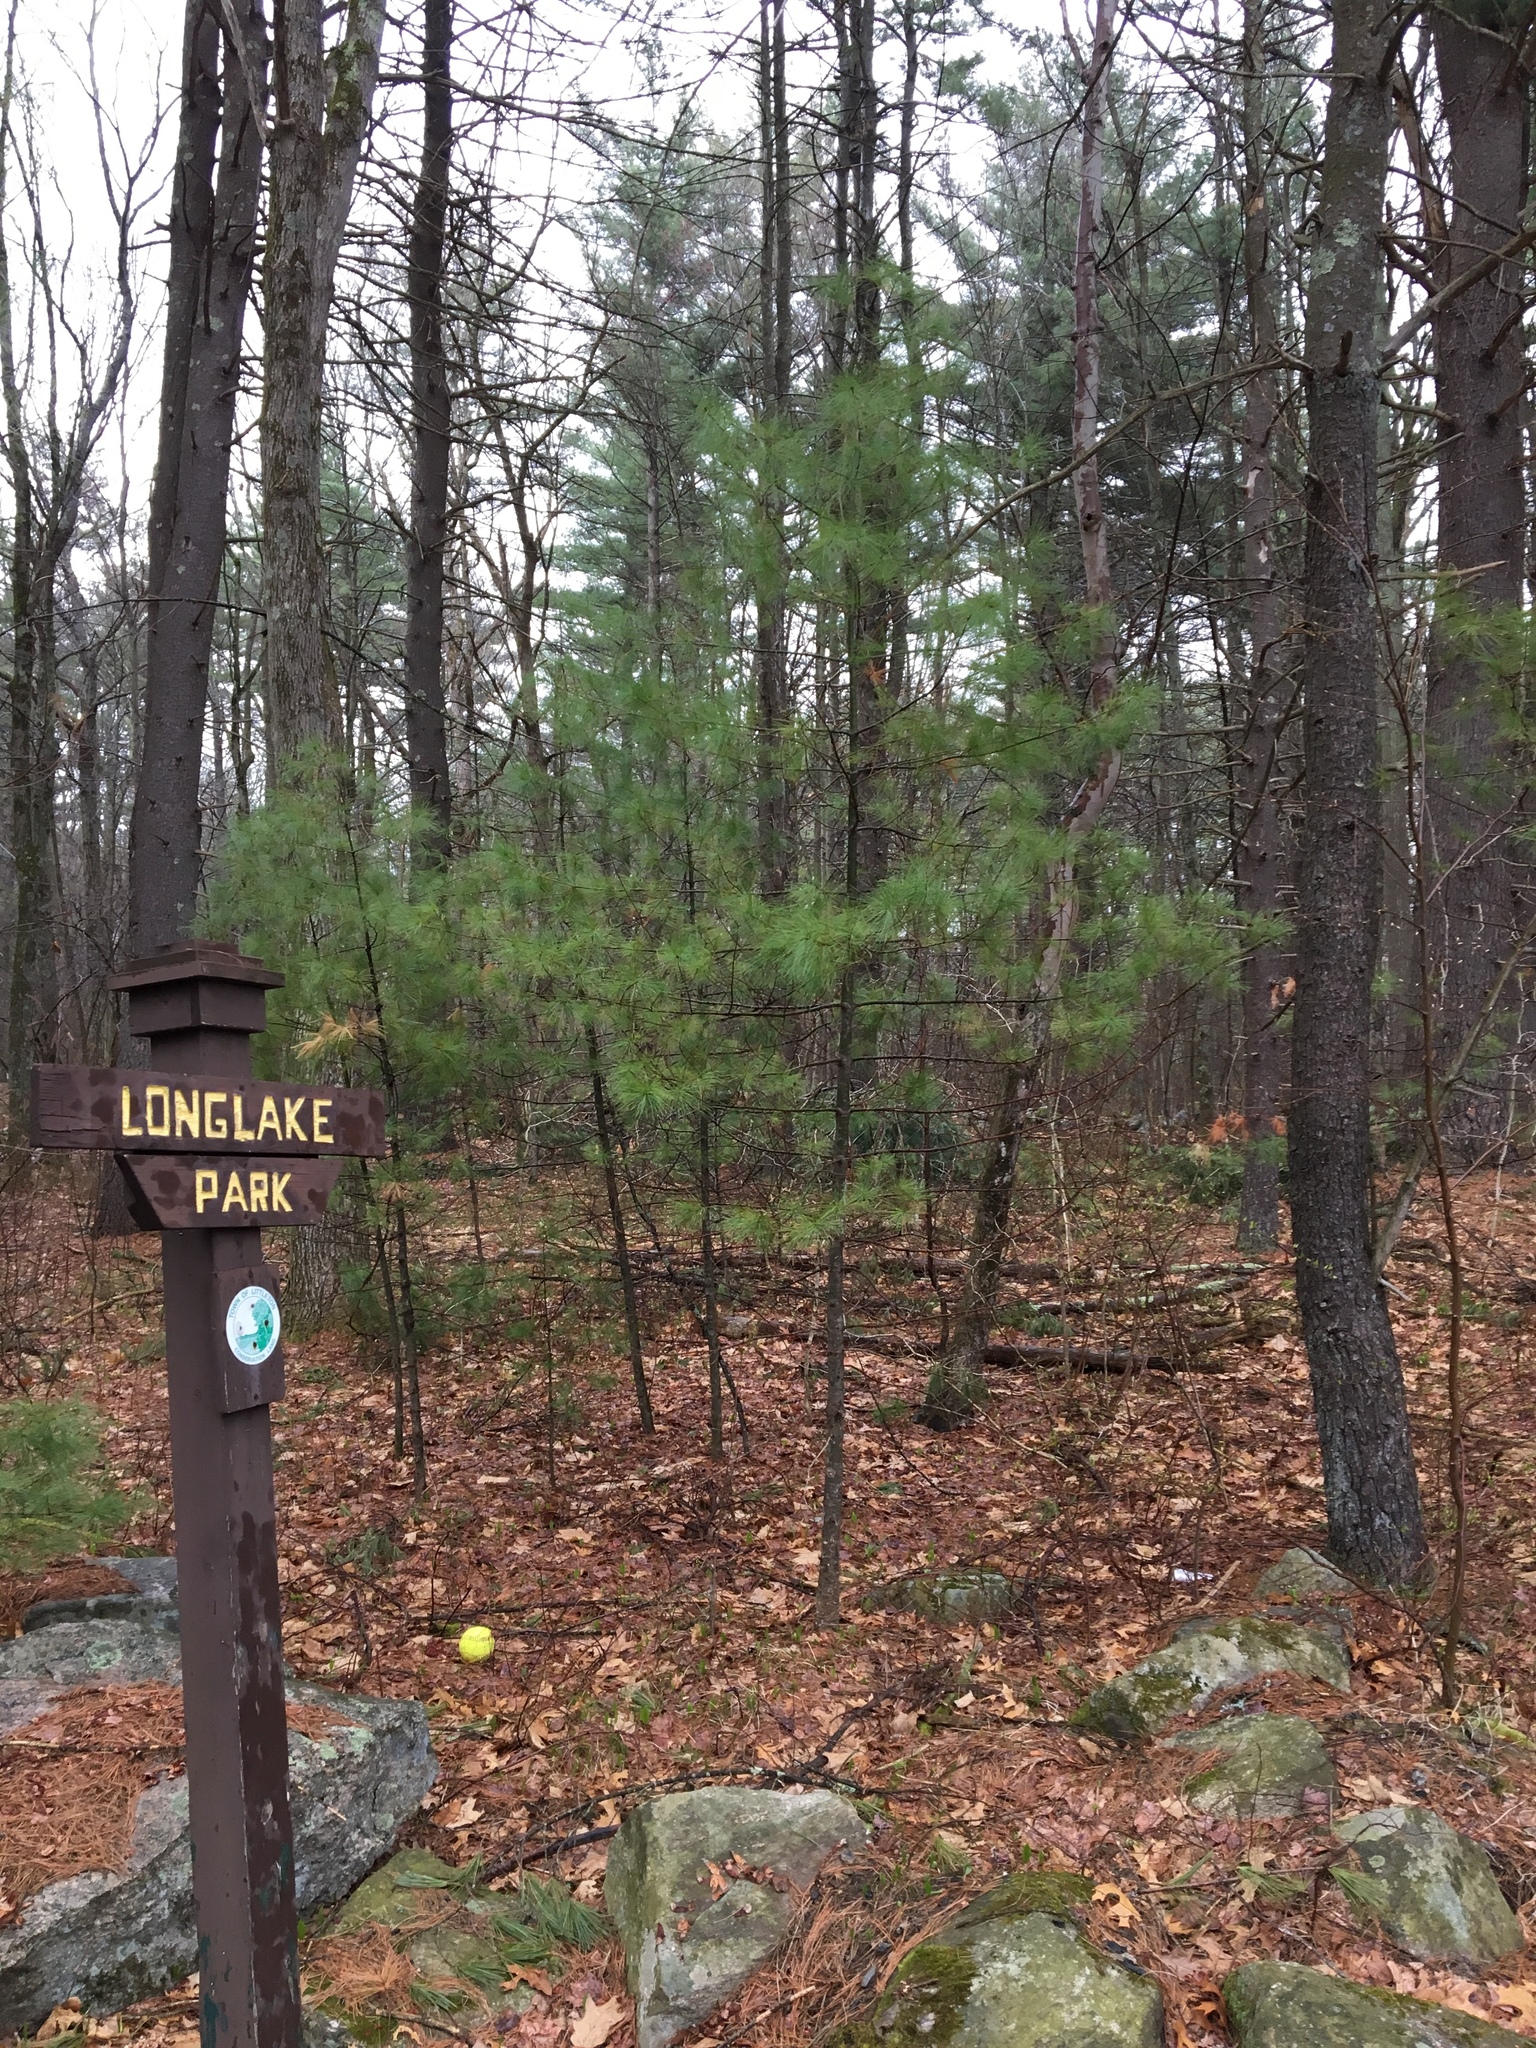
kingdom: Plantae
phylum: Tracheophyta
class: Pinopsida
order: Pinales
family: Pinaceae
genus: Pinus
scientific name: Pinus strobus
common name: Weymouth pine
